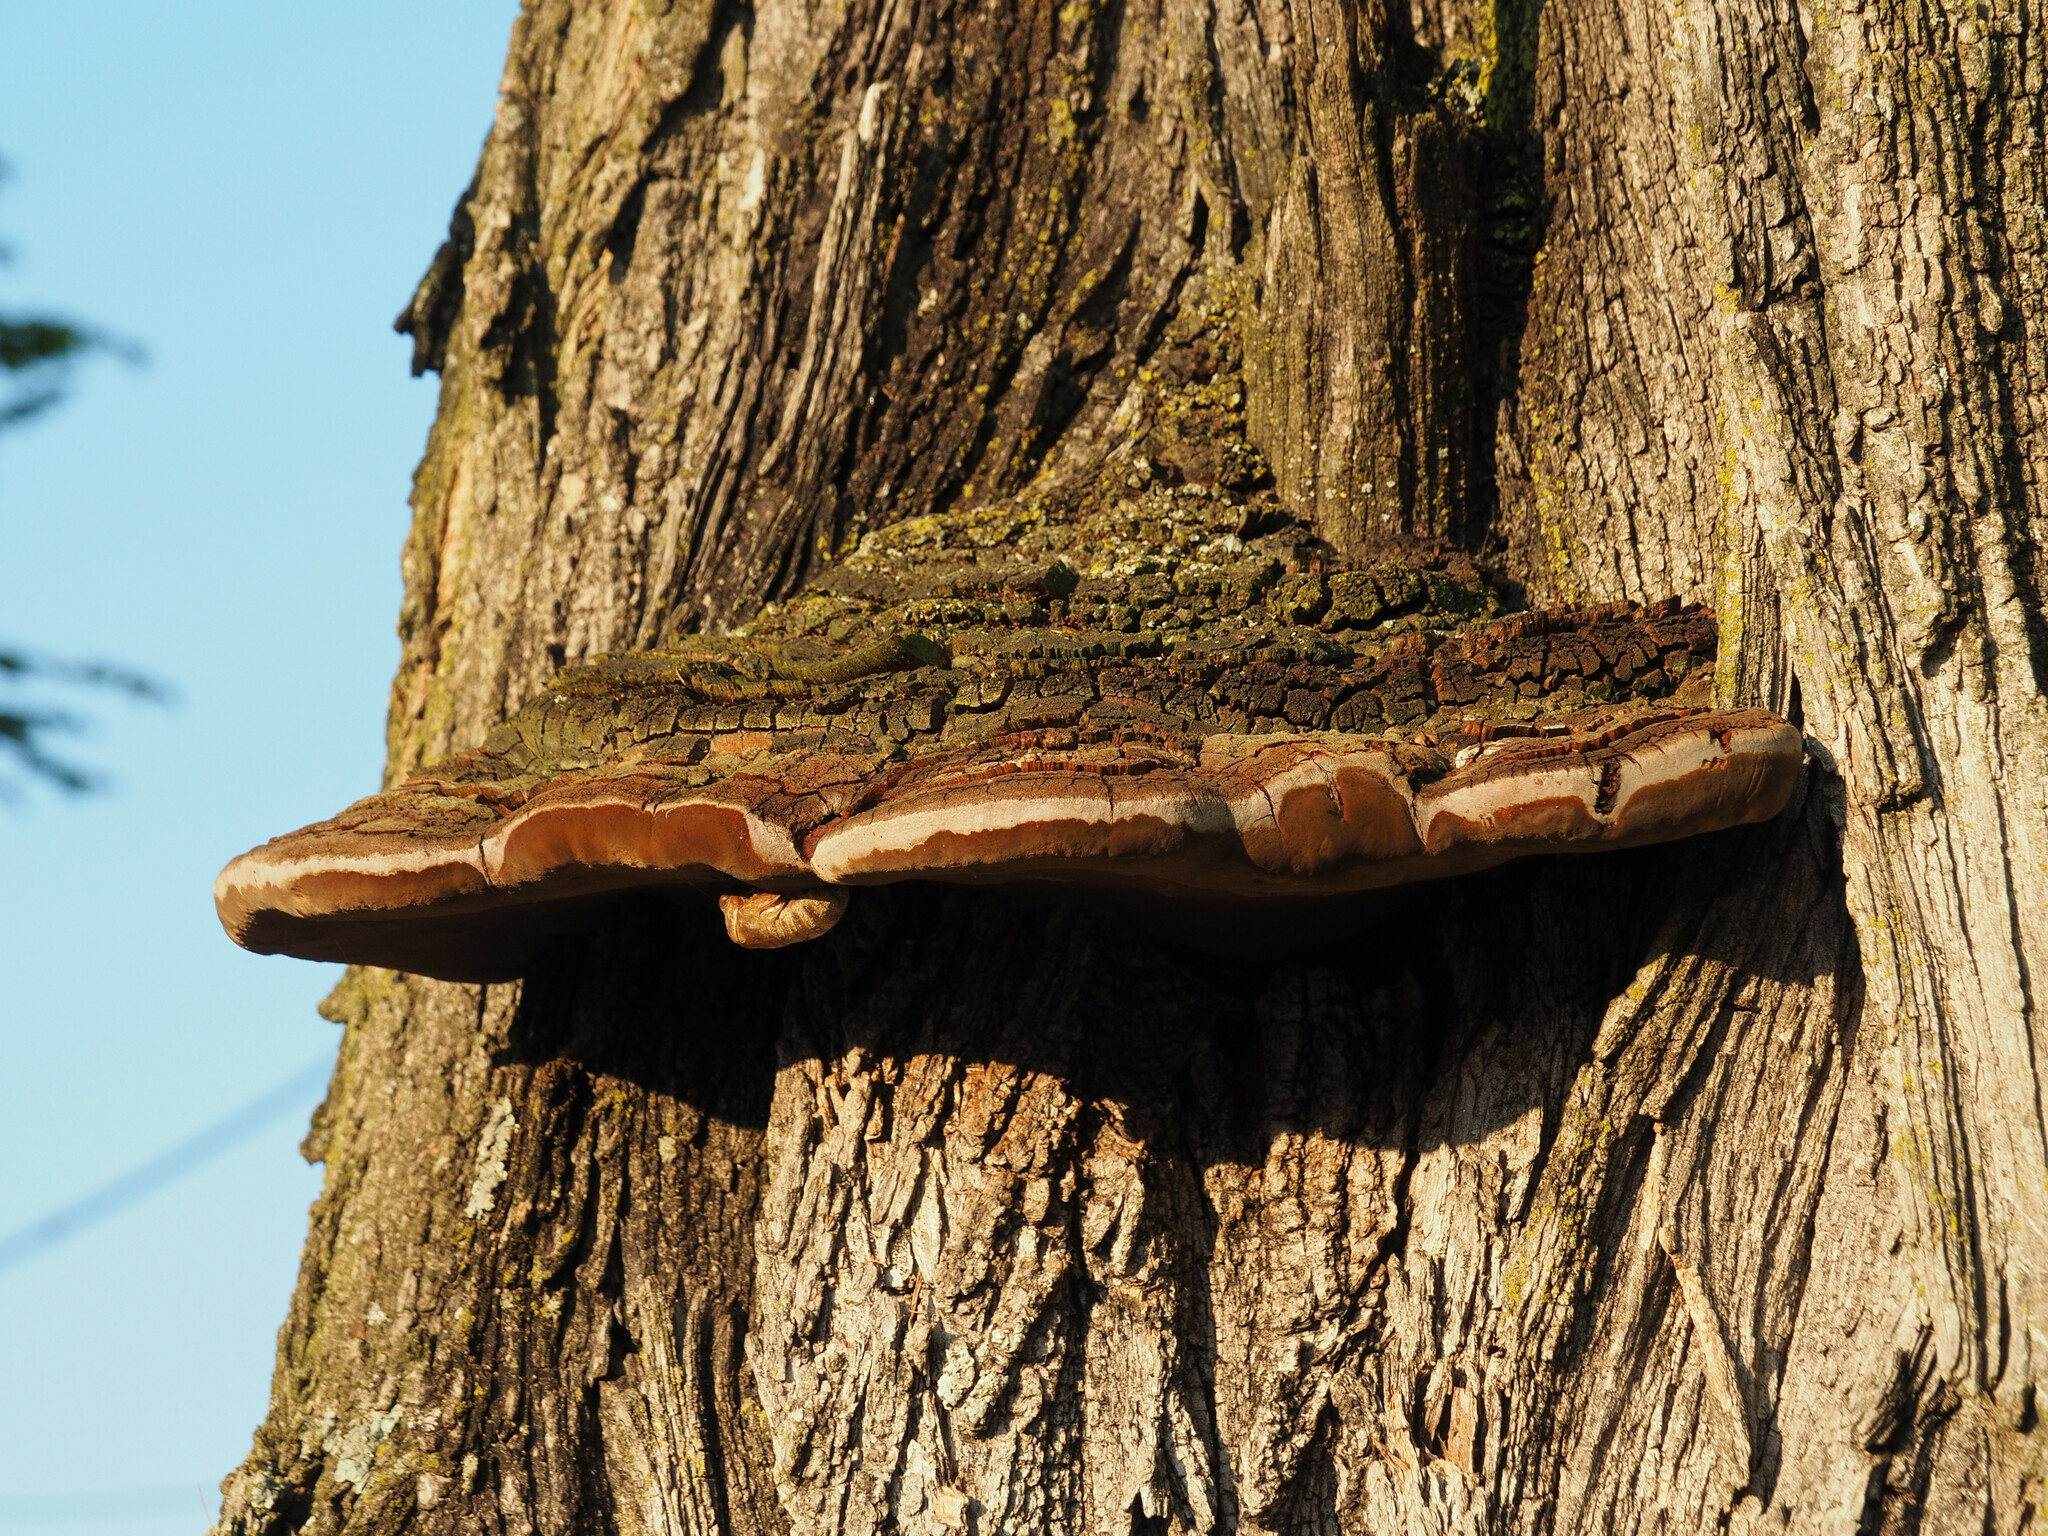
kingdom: Fungi
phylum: Basidiomycota
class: Agaricomycetes
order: Hymenochaetales
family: Hymenochaetaceae
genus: Phellinus
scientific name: Phellinus robiniae
